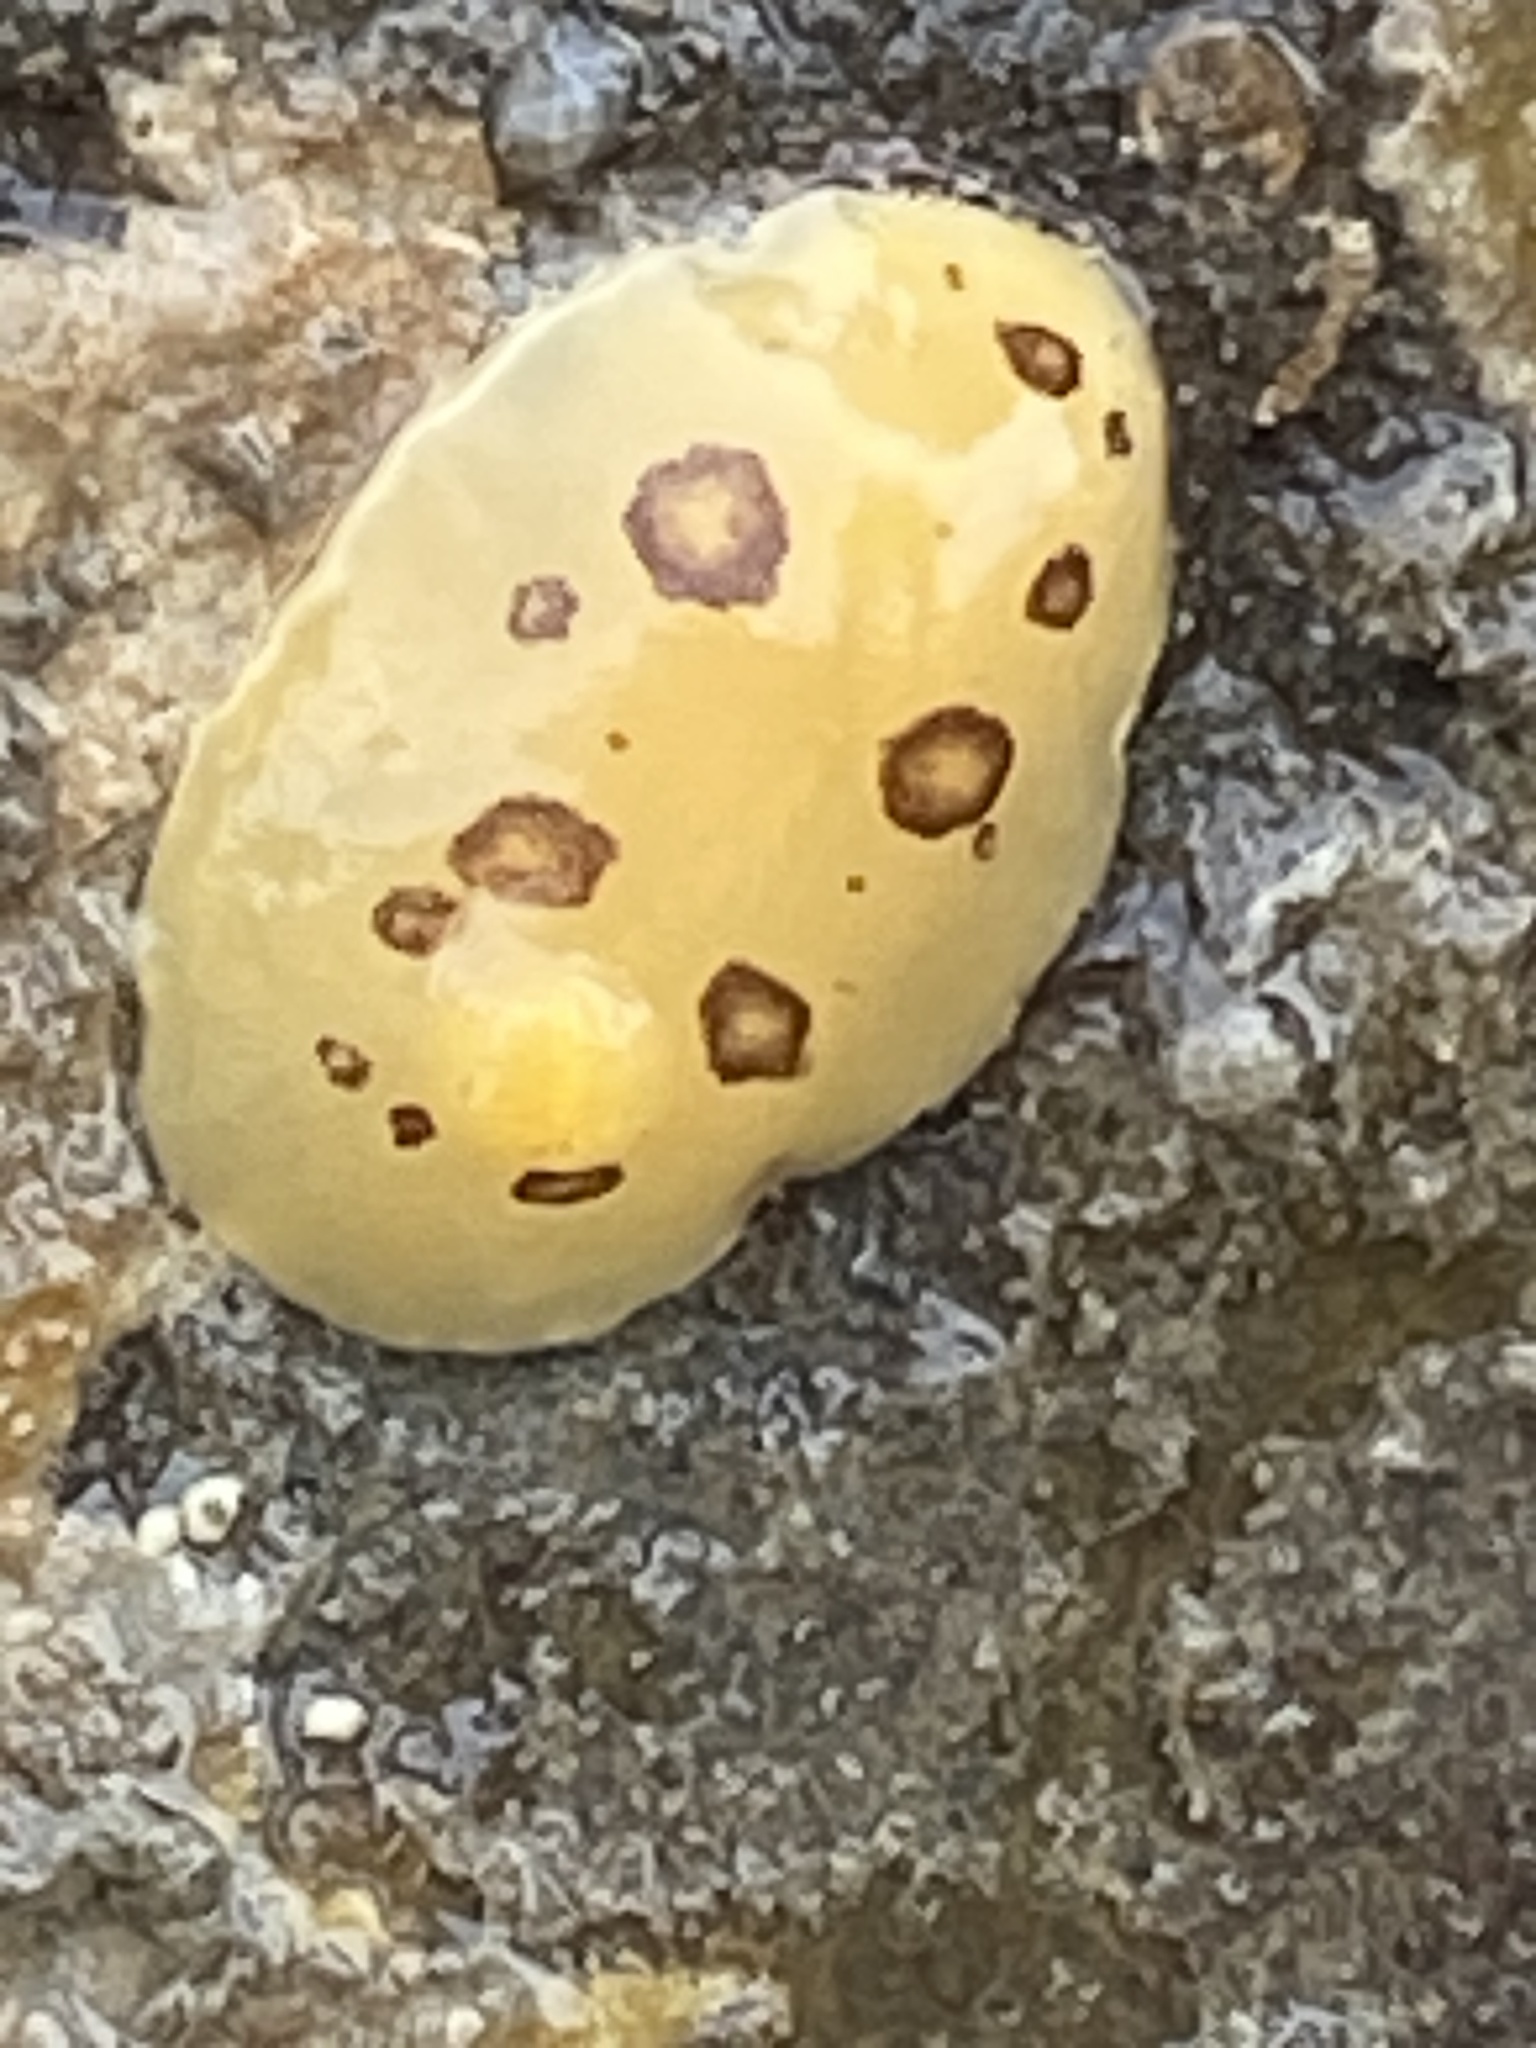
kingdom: Animalia
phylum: Mollusca
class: Gastropoda
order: Nudibranchia
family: Discodorididae
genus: Diaulula
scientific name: Diaulula sandiegensis
